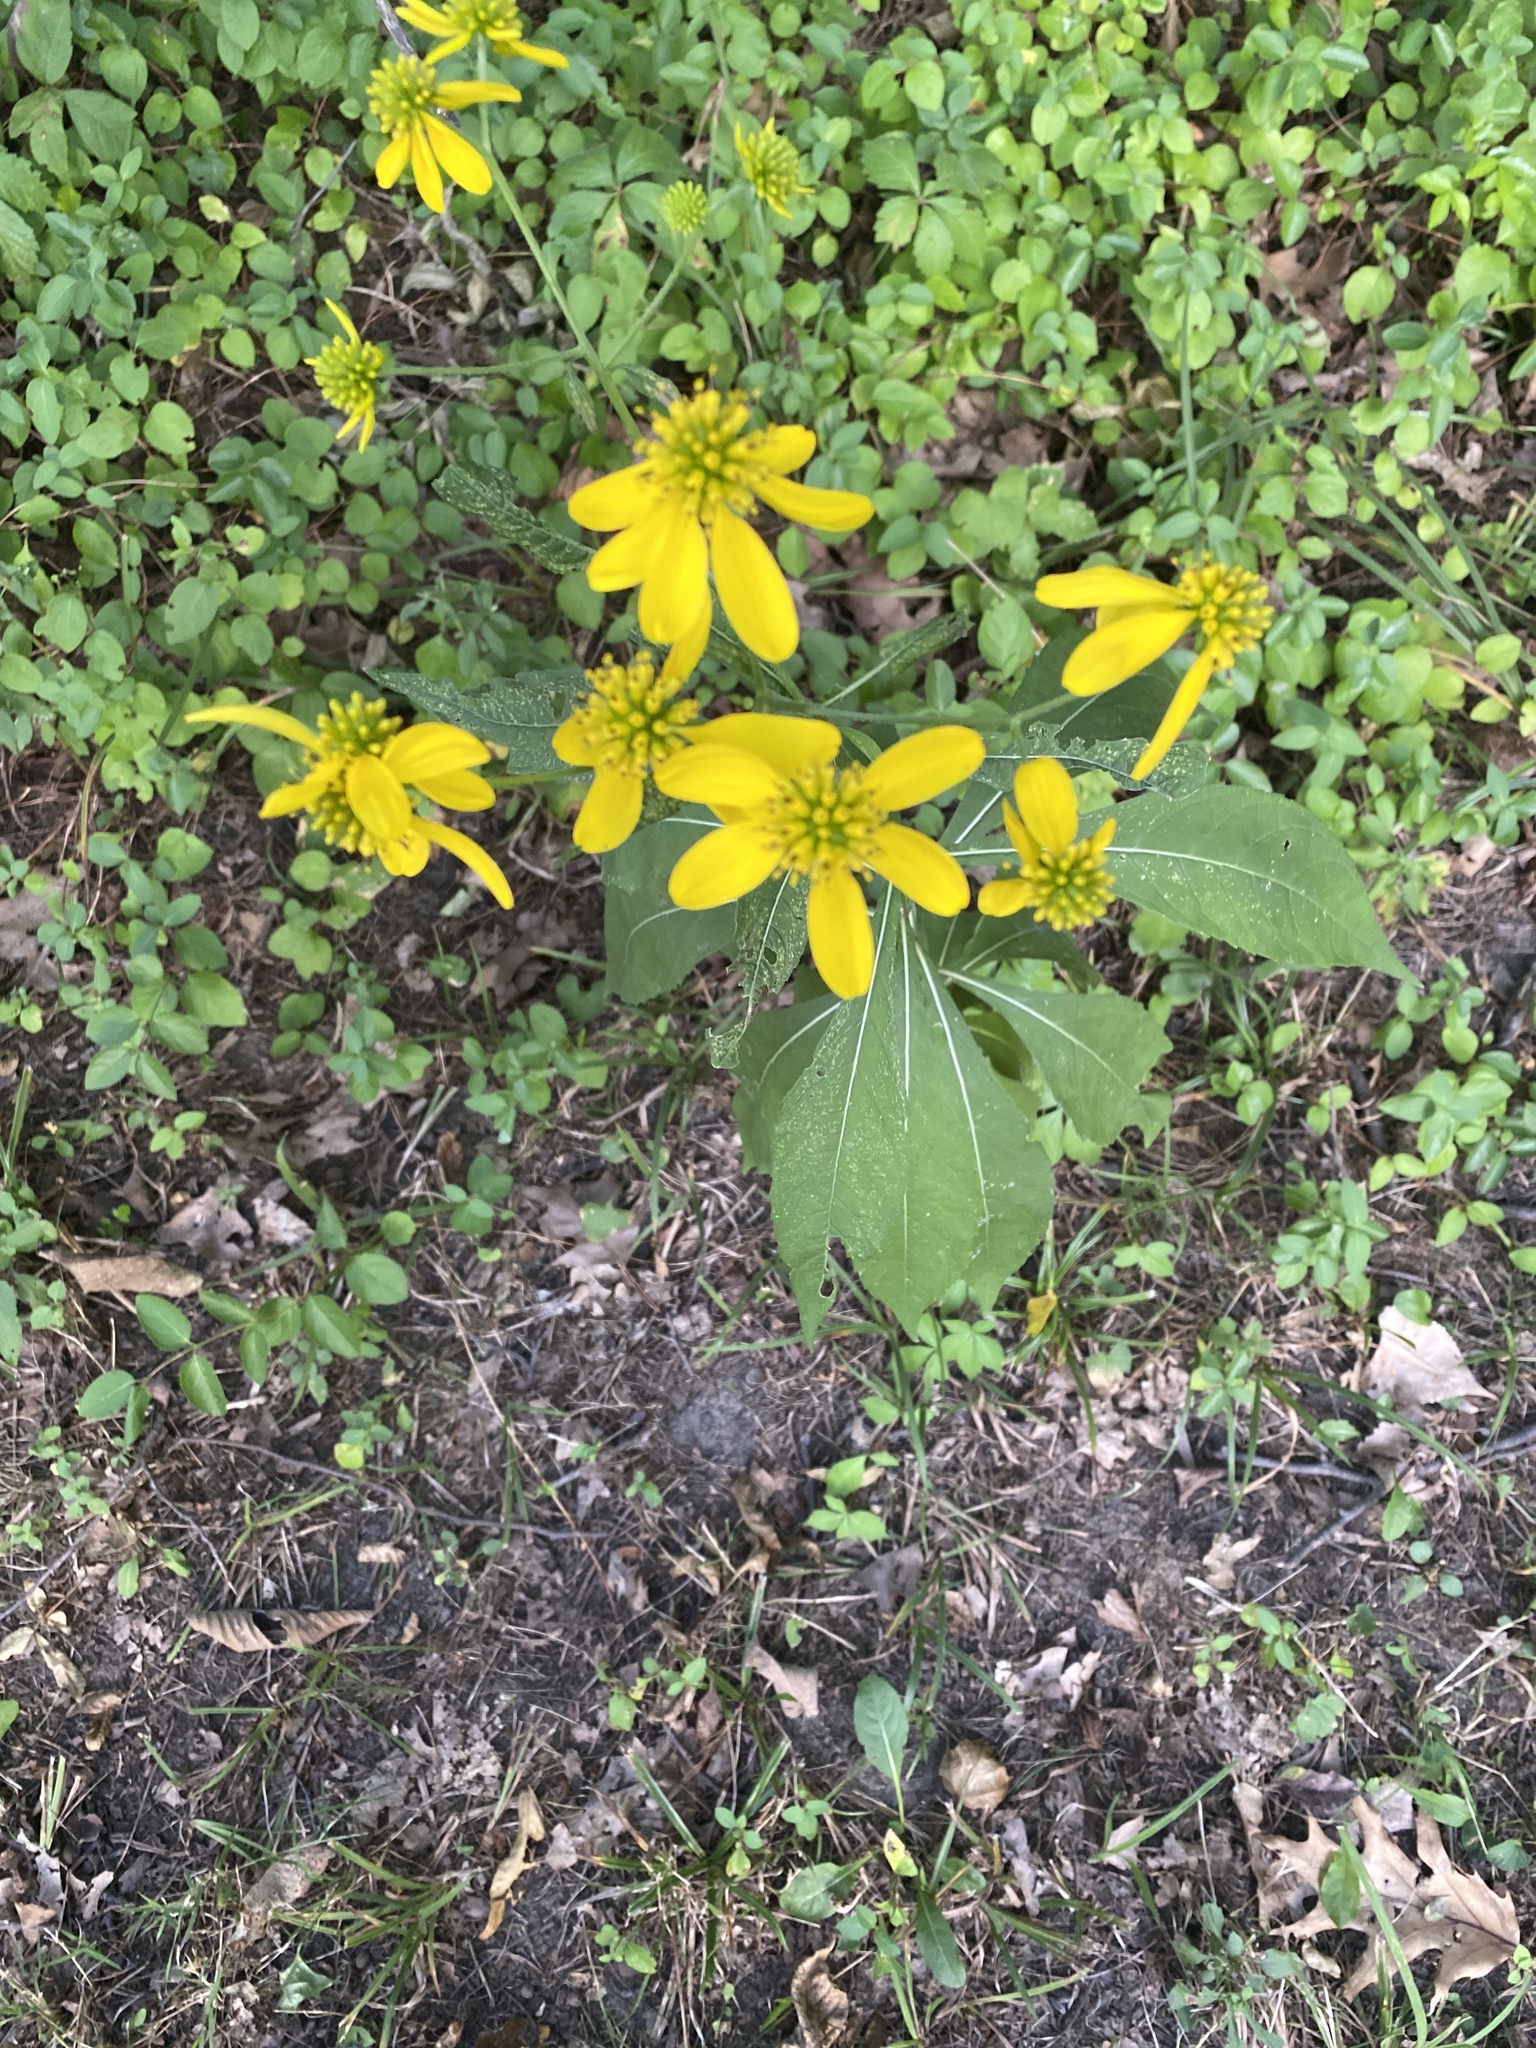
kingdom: Plantae
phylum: Tracheophyta
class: Magnoliopsida
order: Asterales
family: Asteraceae
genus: Verbesina
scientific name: Verbesina alternifolia
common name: Wingstem
